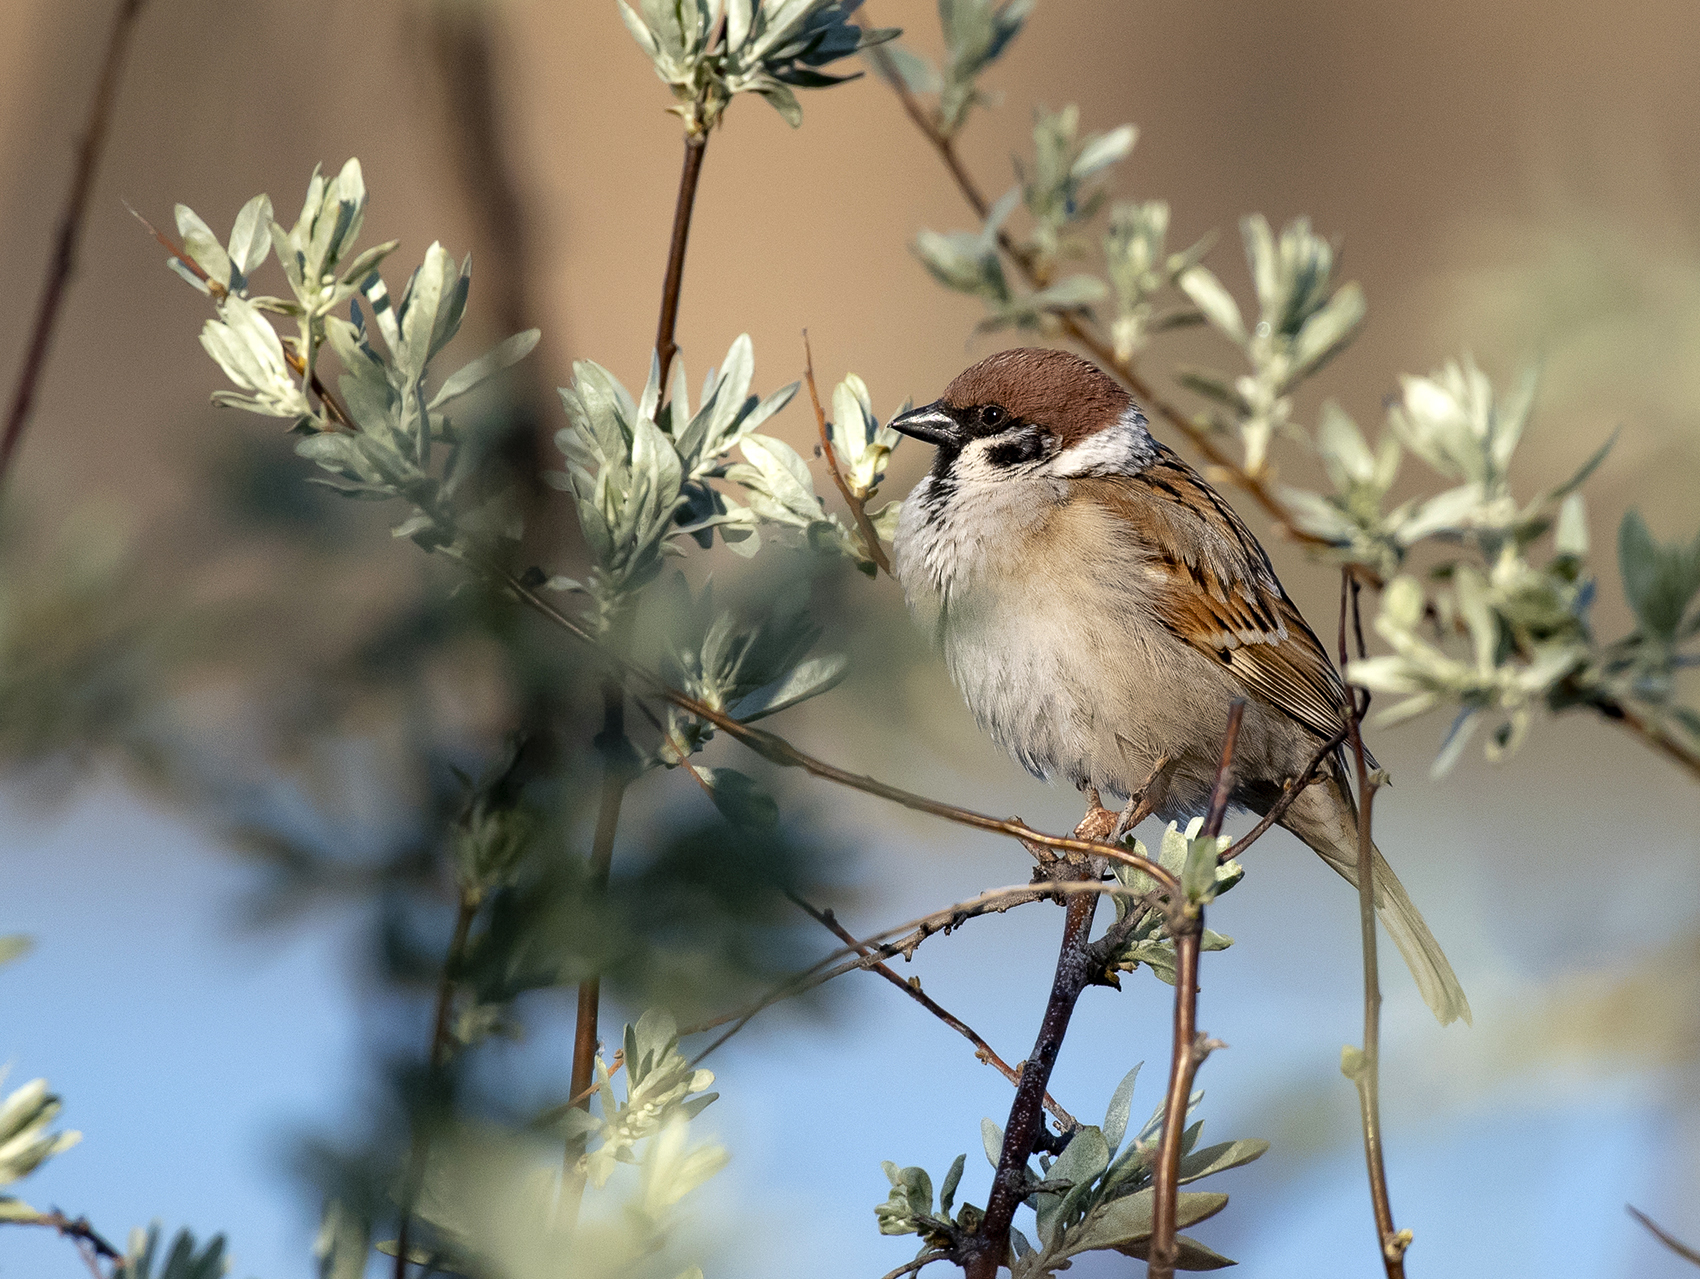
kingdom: Animalia
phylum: Chordata
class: Aves
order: Passeriformes
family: Passeridae
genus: Passer
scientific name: Passer montanus
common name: Eurasian tree sparrow
